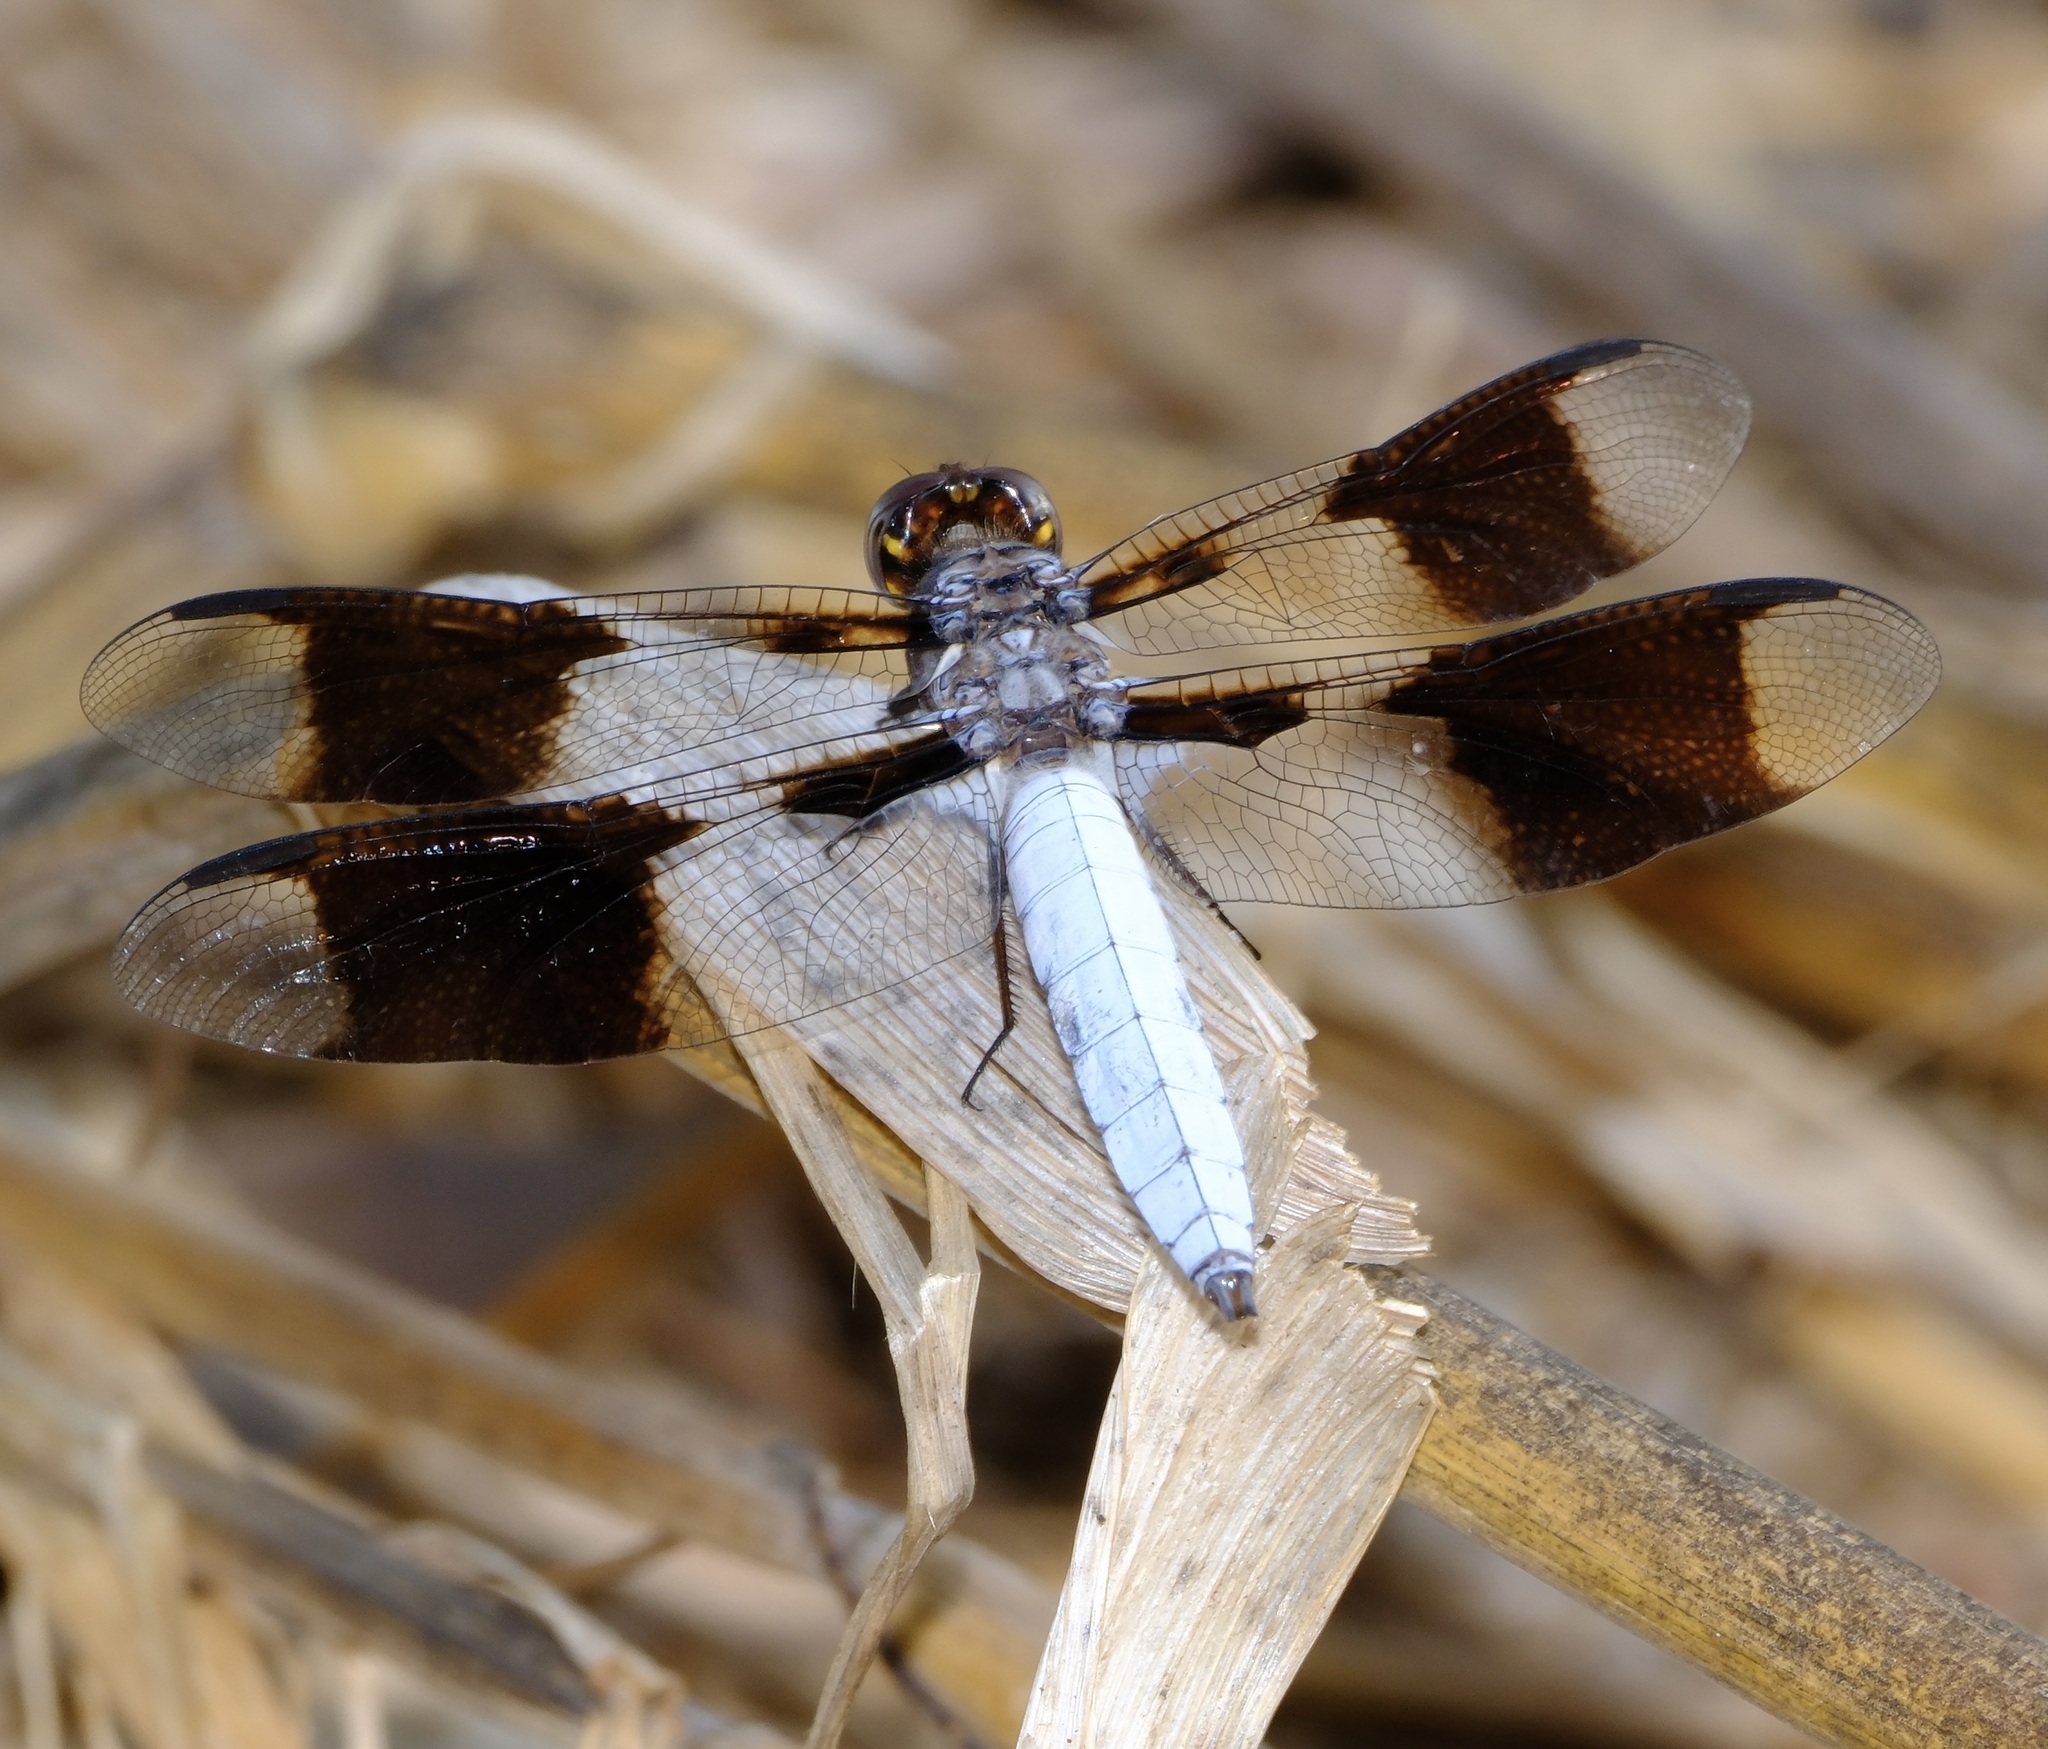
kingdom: Animalia
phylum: Arthropoda
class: Insecta
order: Odonata
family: Libellulidae
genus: Plathemis
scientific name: Plathemis lydia
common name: Common whitetail
